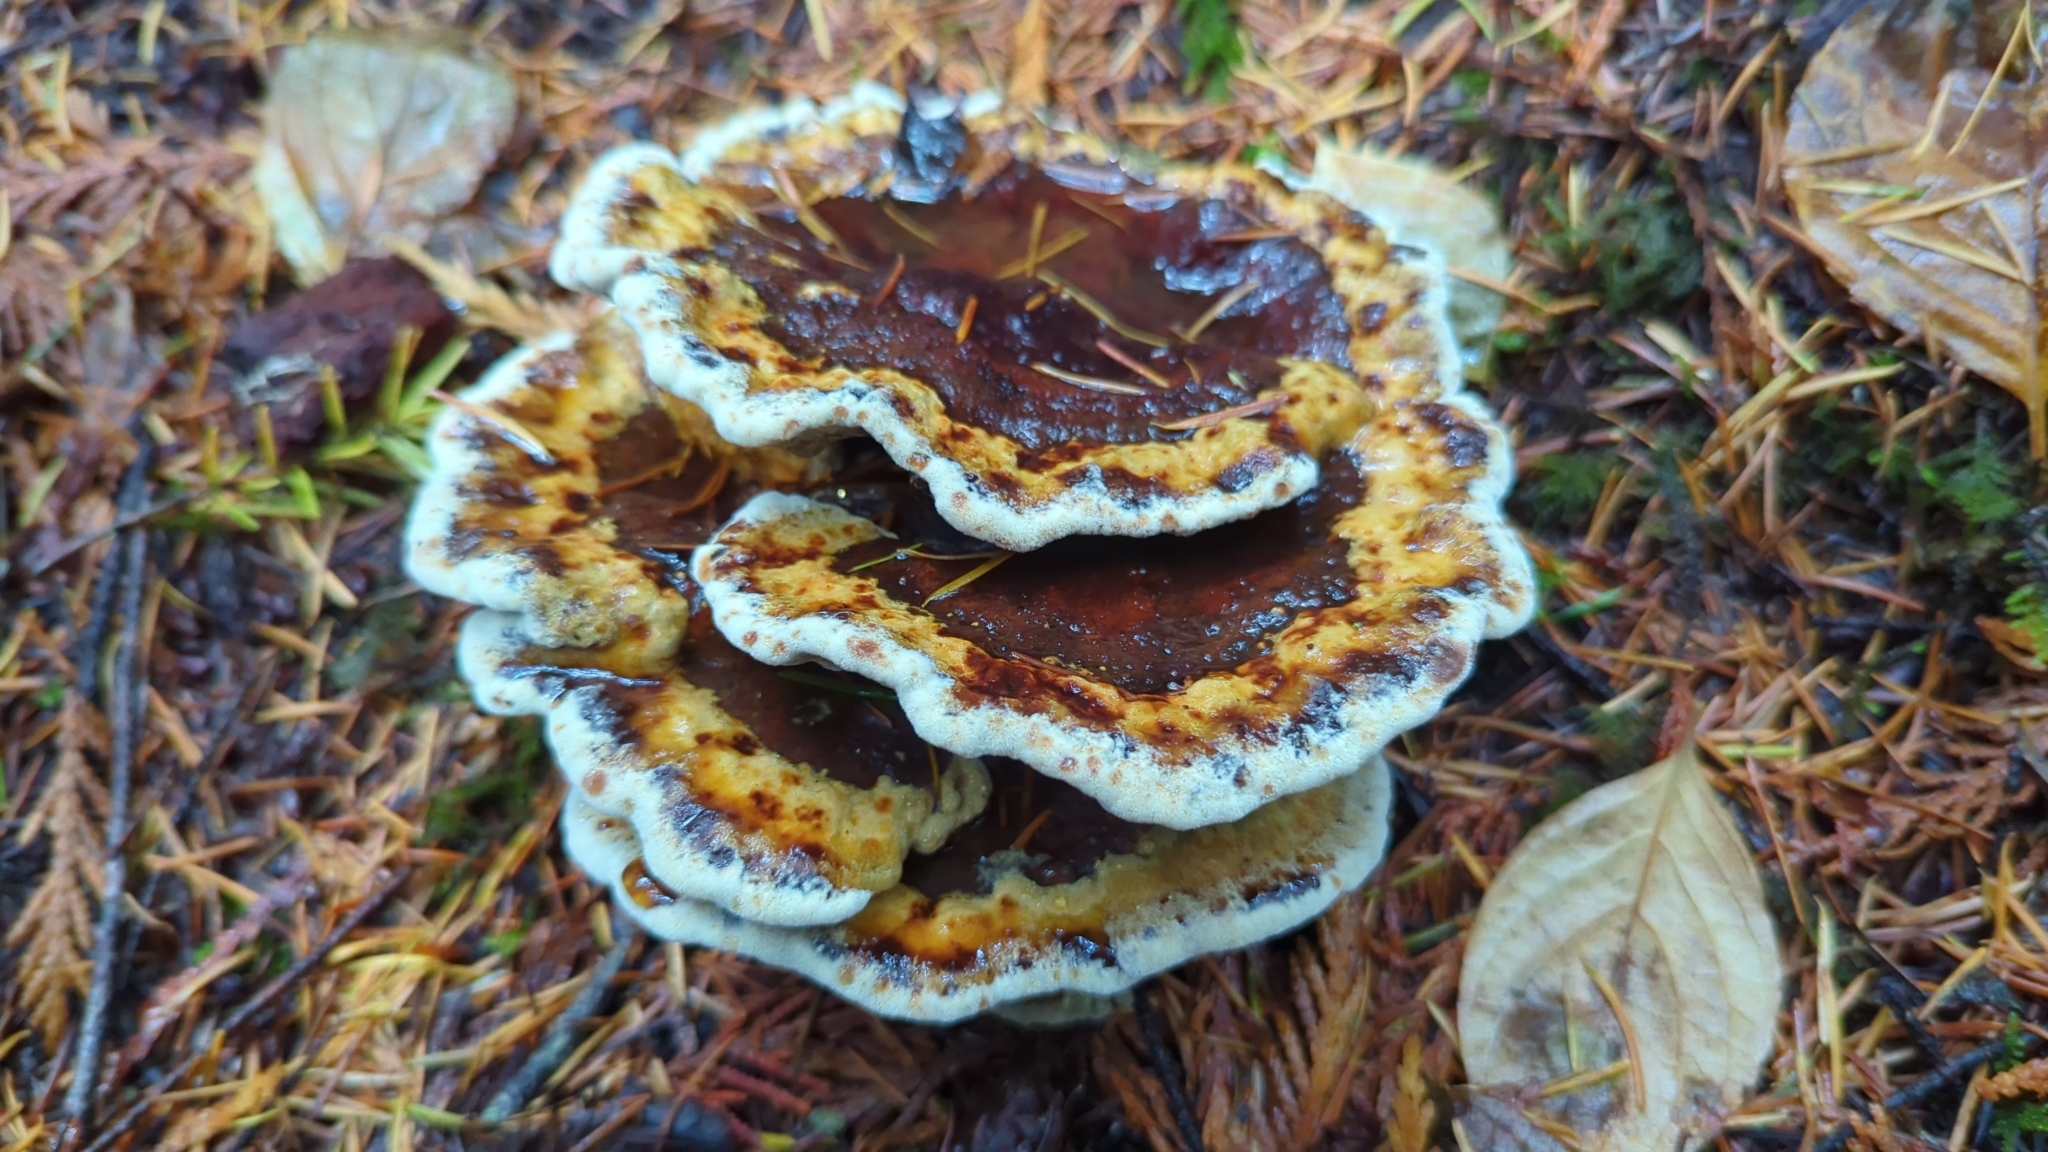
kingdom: Fungi
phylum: Basidiomycota
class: Agaricomycetes
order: Polyporales
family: Laetiporaceae
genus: Phaeolus
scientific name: Phaeolus schweinitzii
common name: Dyer's mazegill
